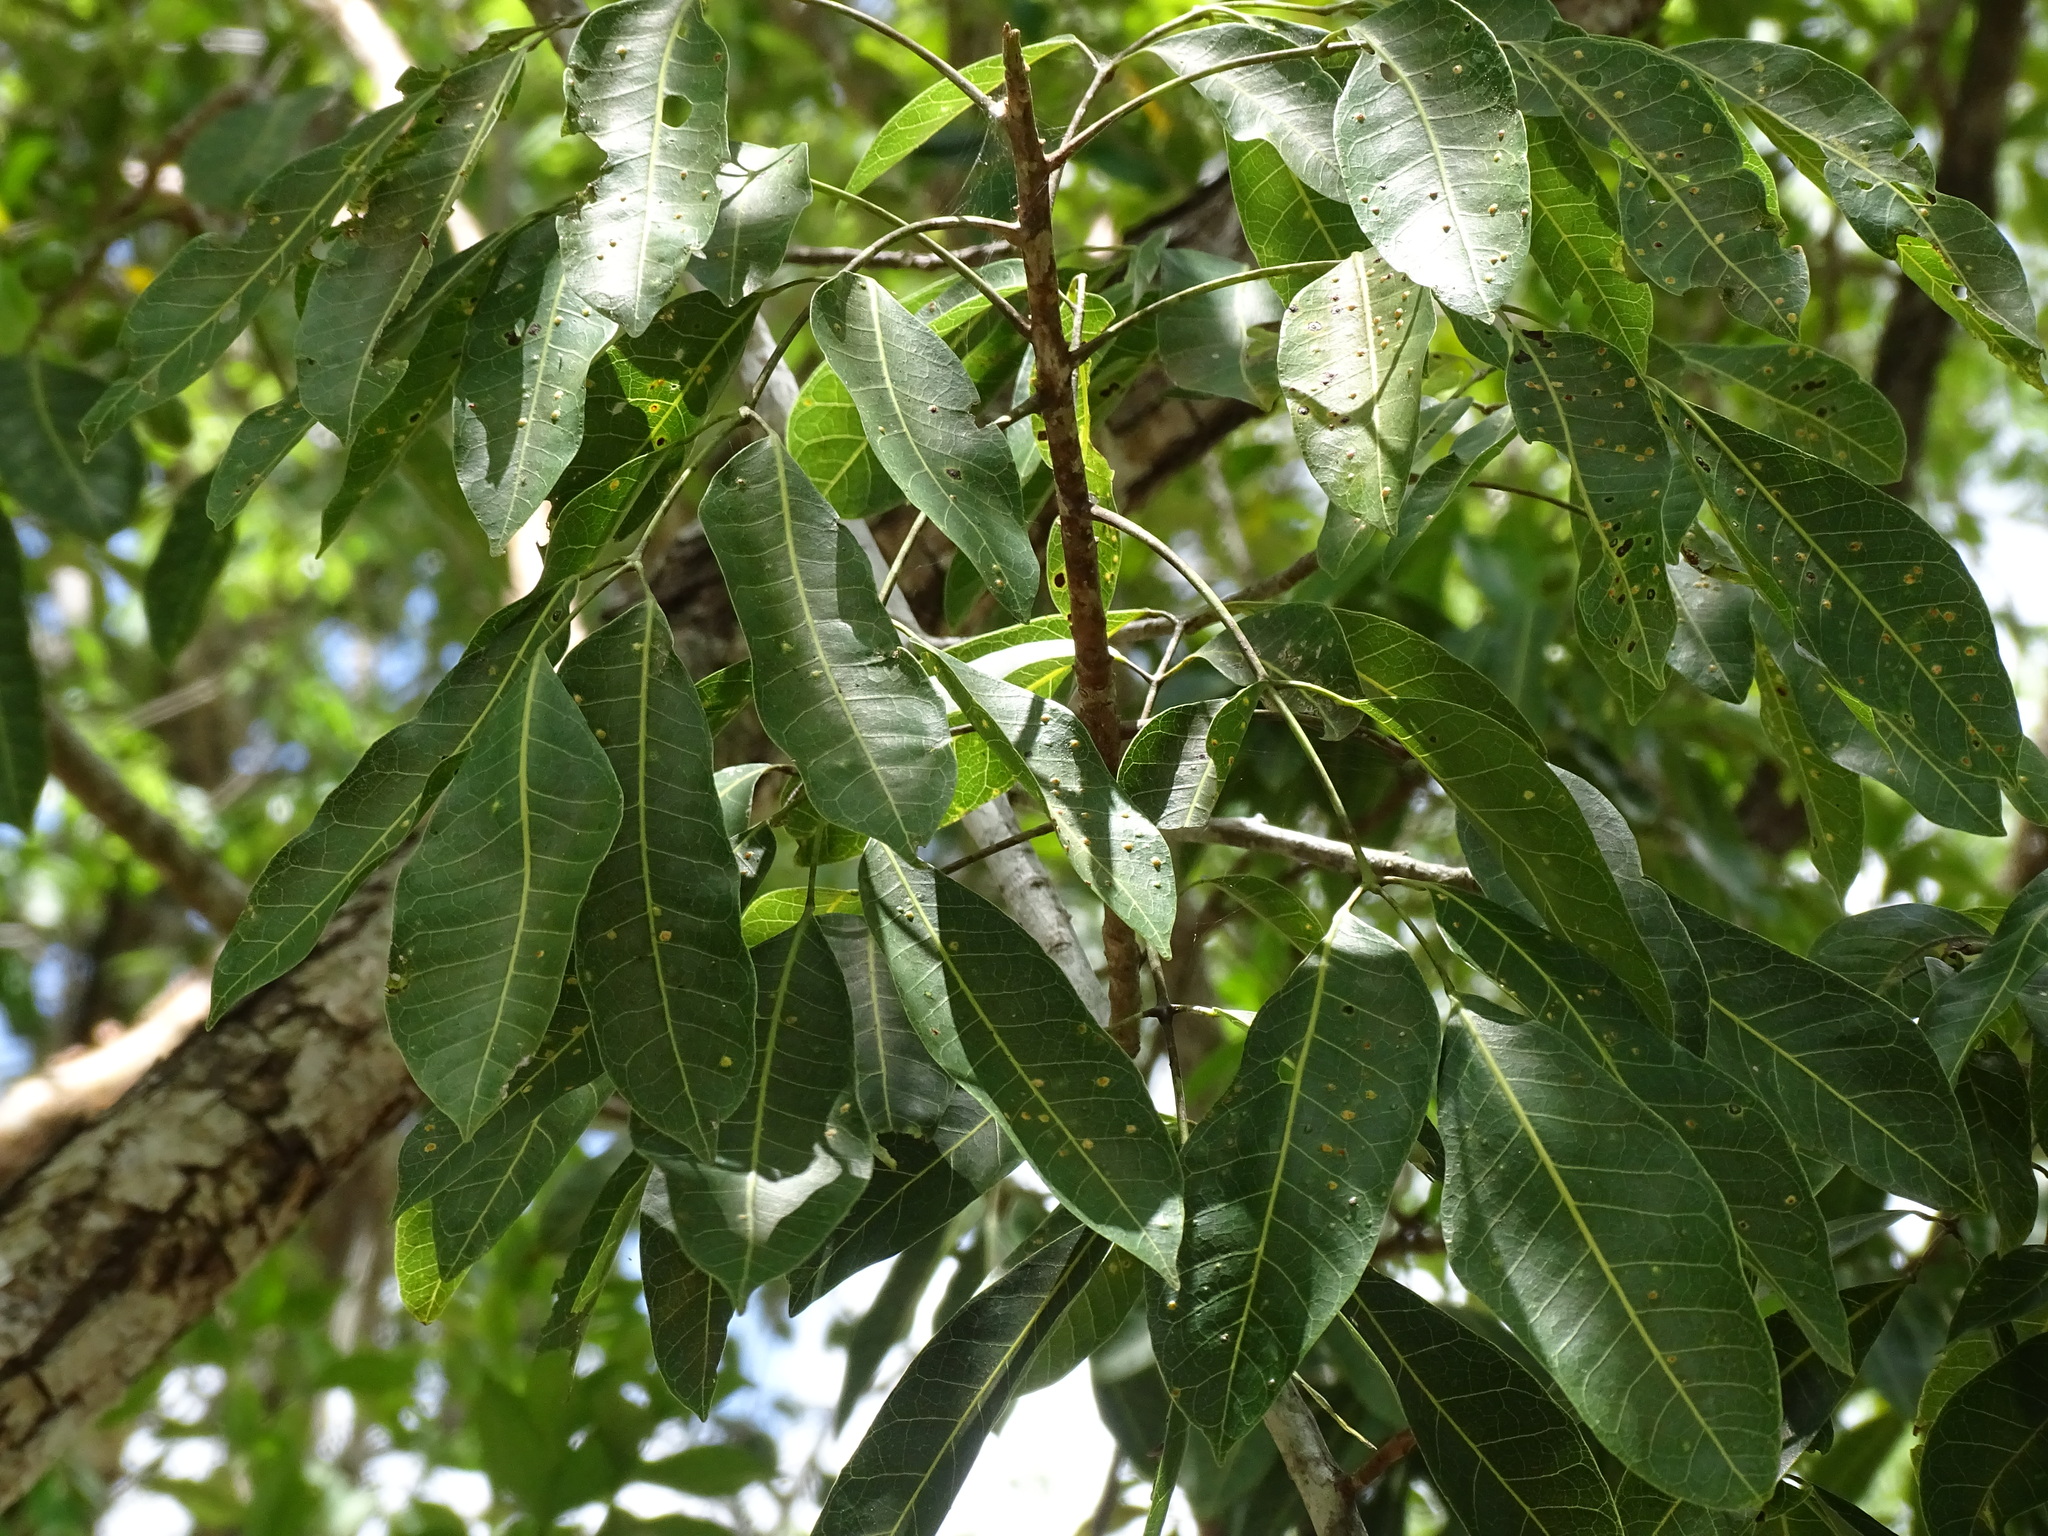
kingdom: Plantae
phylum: Tracheophyta
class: Magnoliopsida
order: Sapindales
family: Burseraceae
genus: Protium
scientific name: Protium copal
